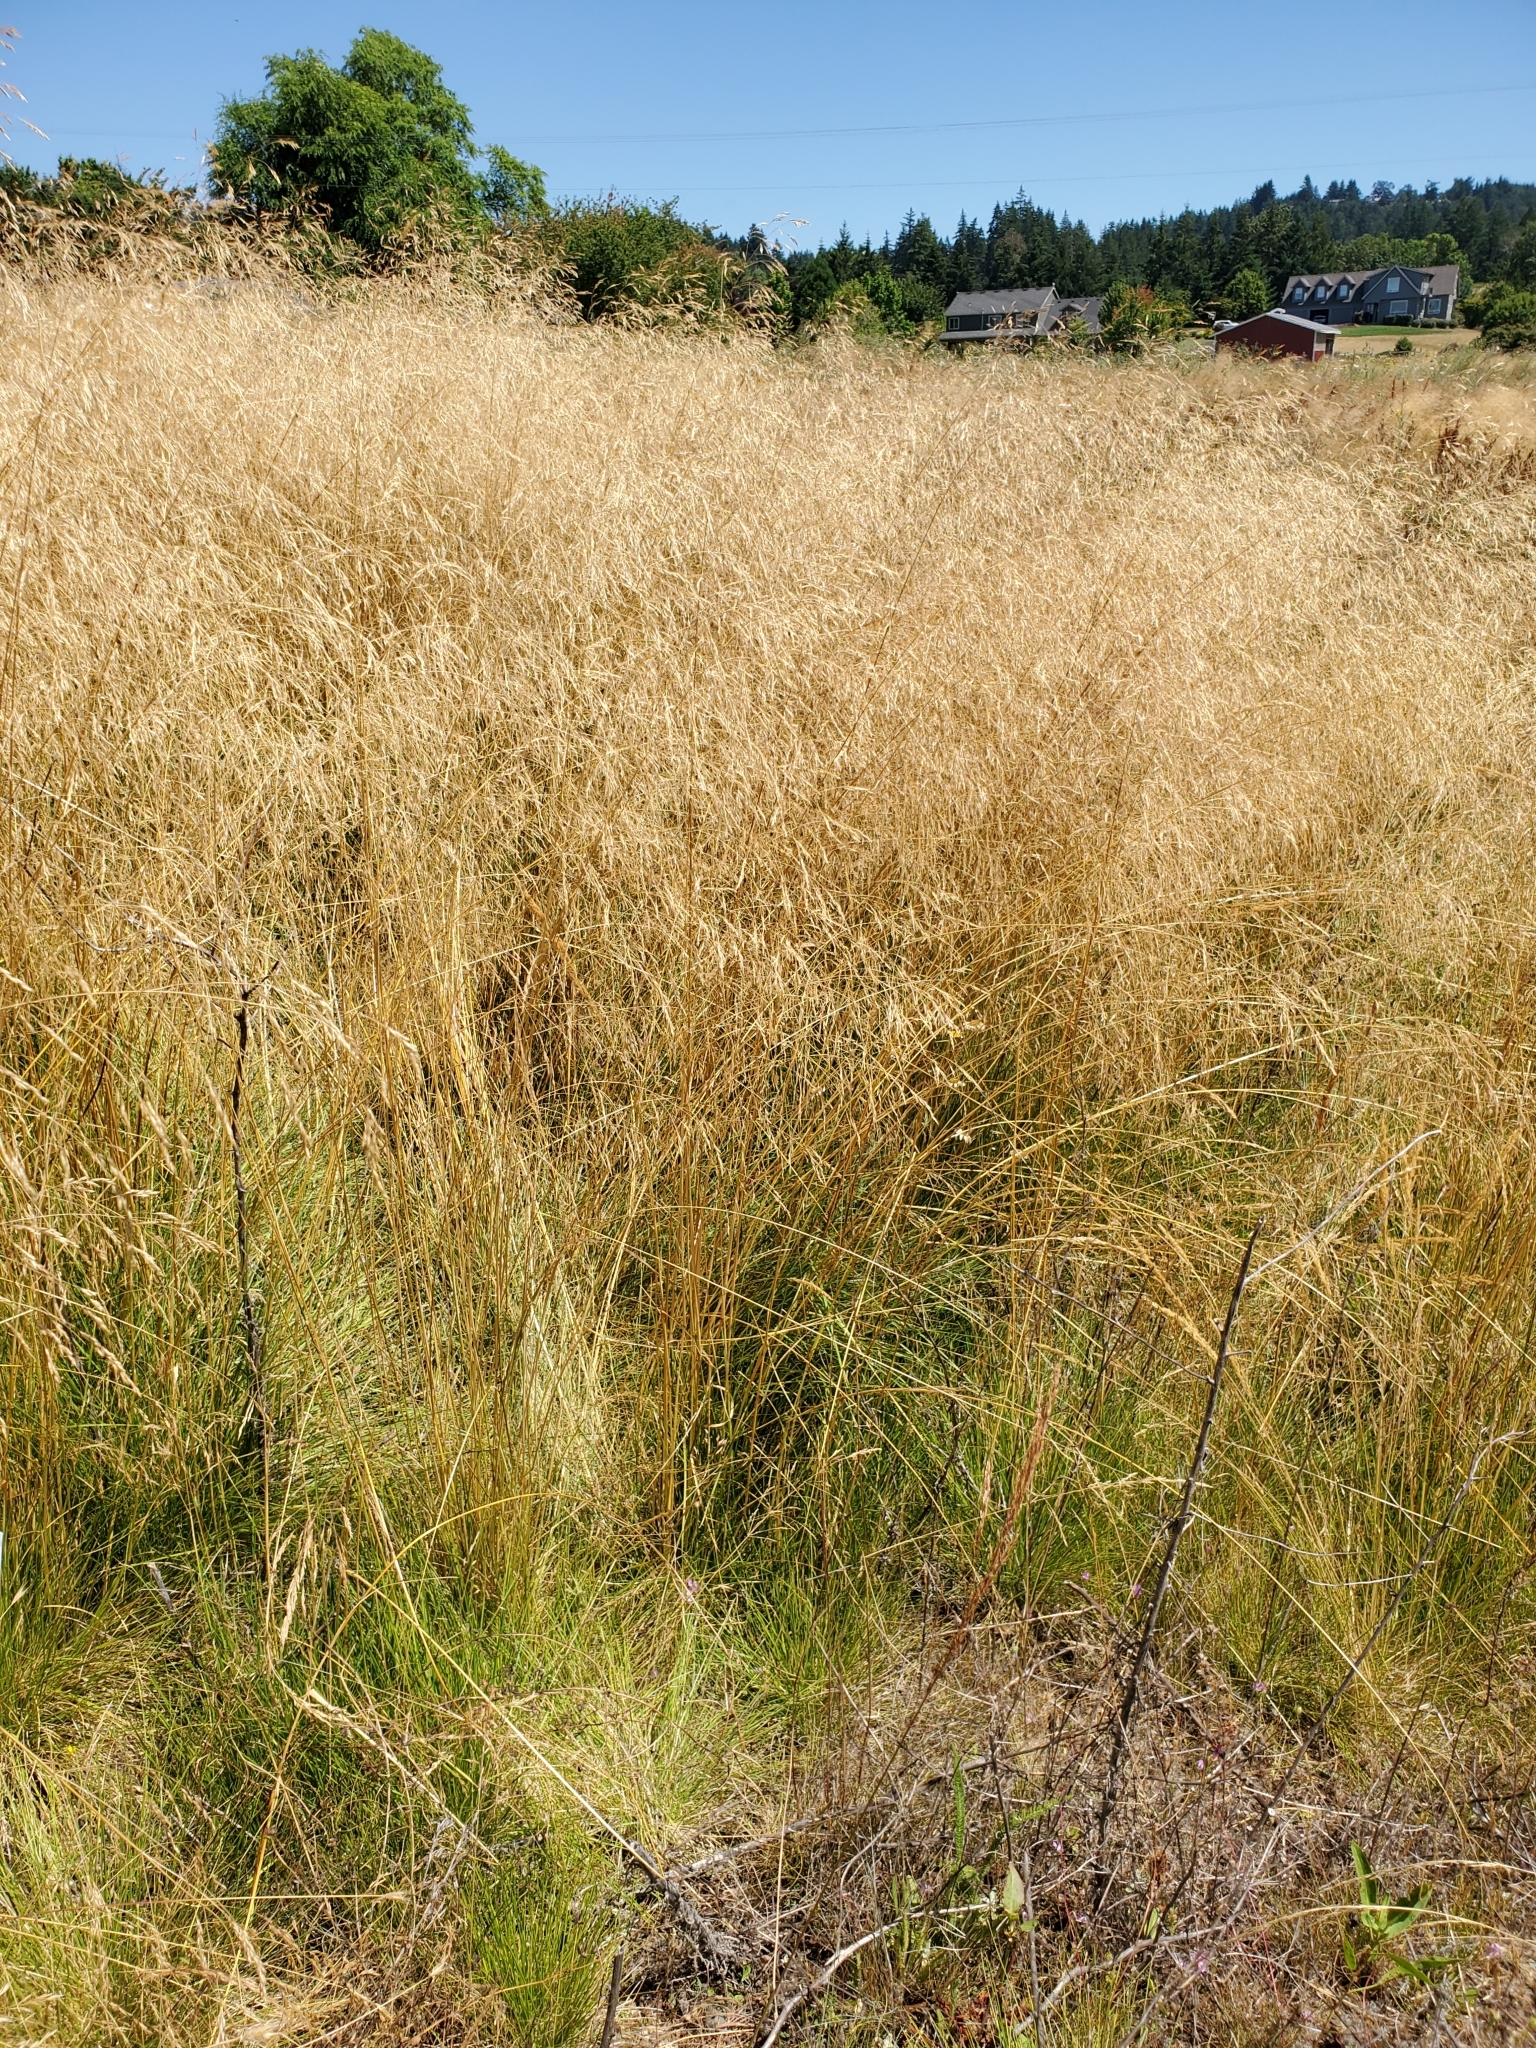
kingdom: Plantae
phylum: Tracheophyta
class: Liliopsida
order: Poales
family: Poaceae
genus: Deschampsia
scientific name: Deschampsia cespitosa
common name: Tufted hair-grass
